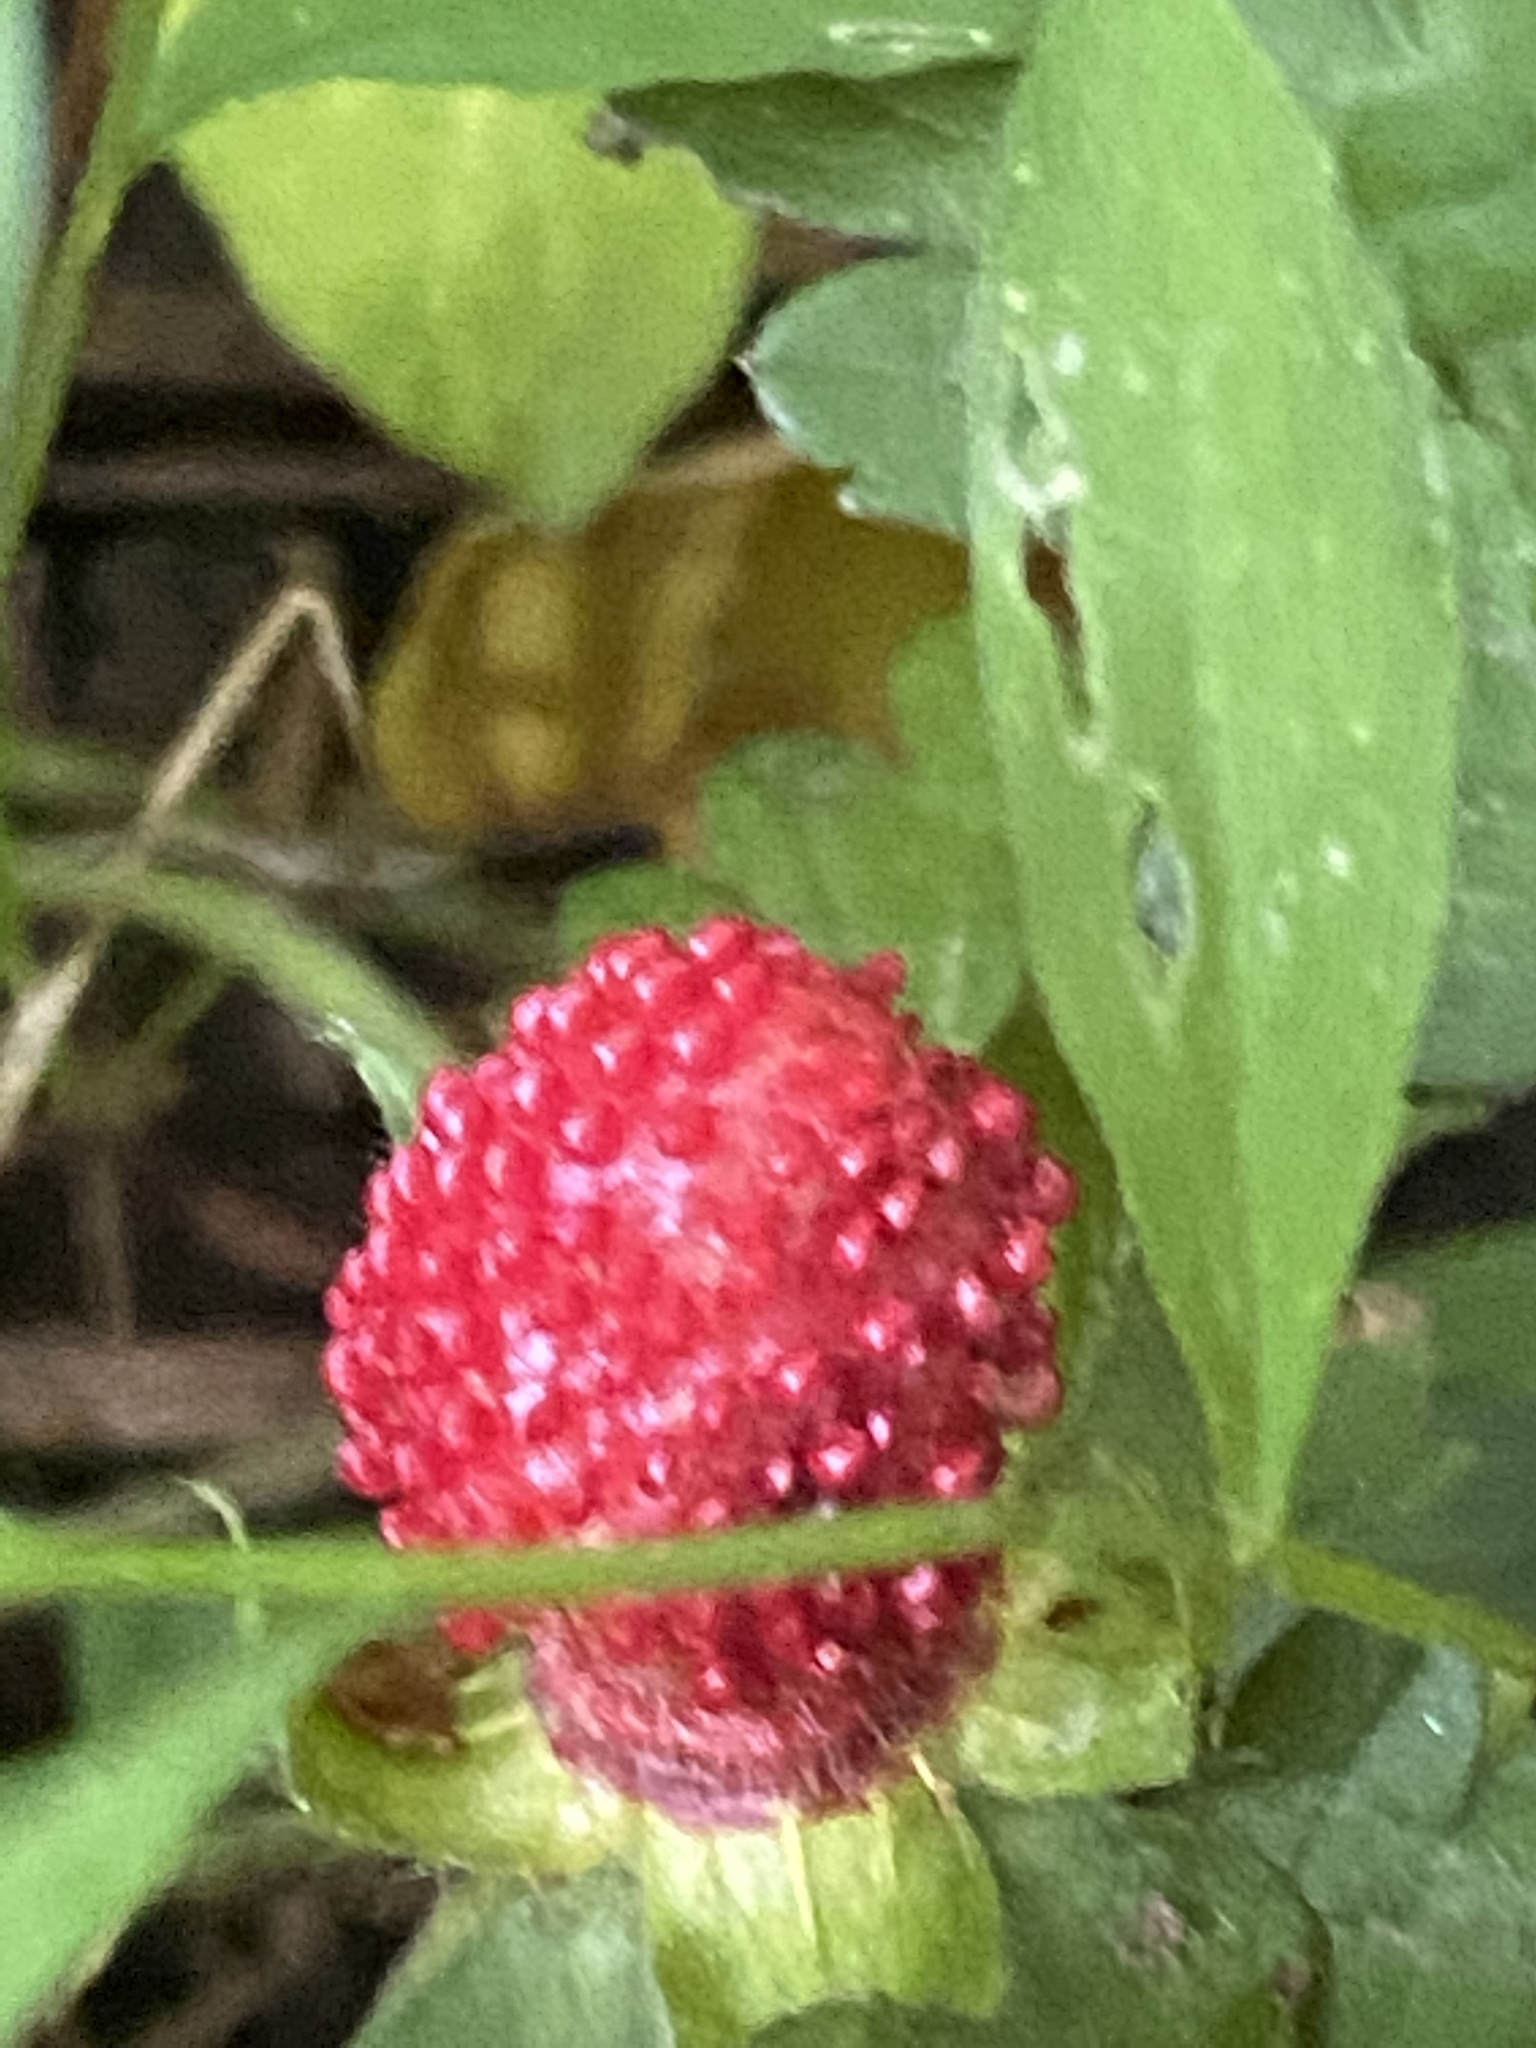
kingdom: Plantae
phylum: Tracheophyta
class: Magnoliopsida
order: Rosales
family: Rosaceae
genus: Potentilla
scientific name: Potentilla indica
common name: Yellow-flowered strawberry
